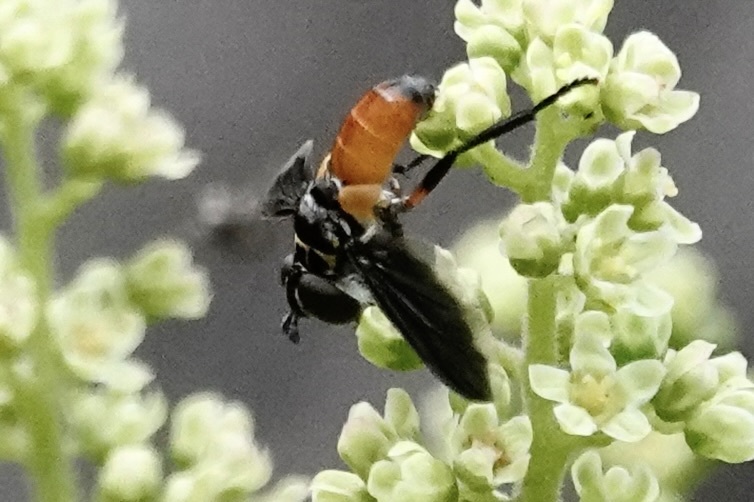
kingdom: Animalia
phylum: Arthropoda
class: Insecta
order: Diptera
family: Tachinidae
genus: Trichopoda
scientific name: Trichopoda pennipes
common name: Tachinid fly
